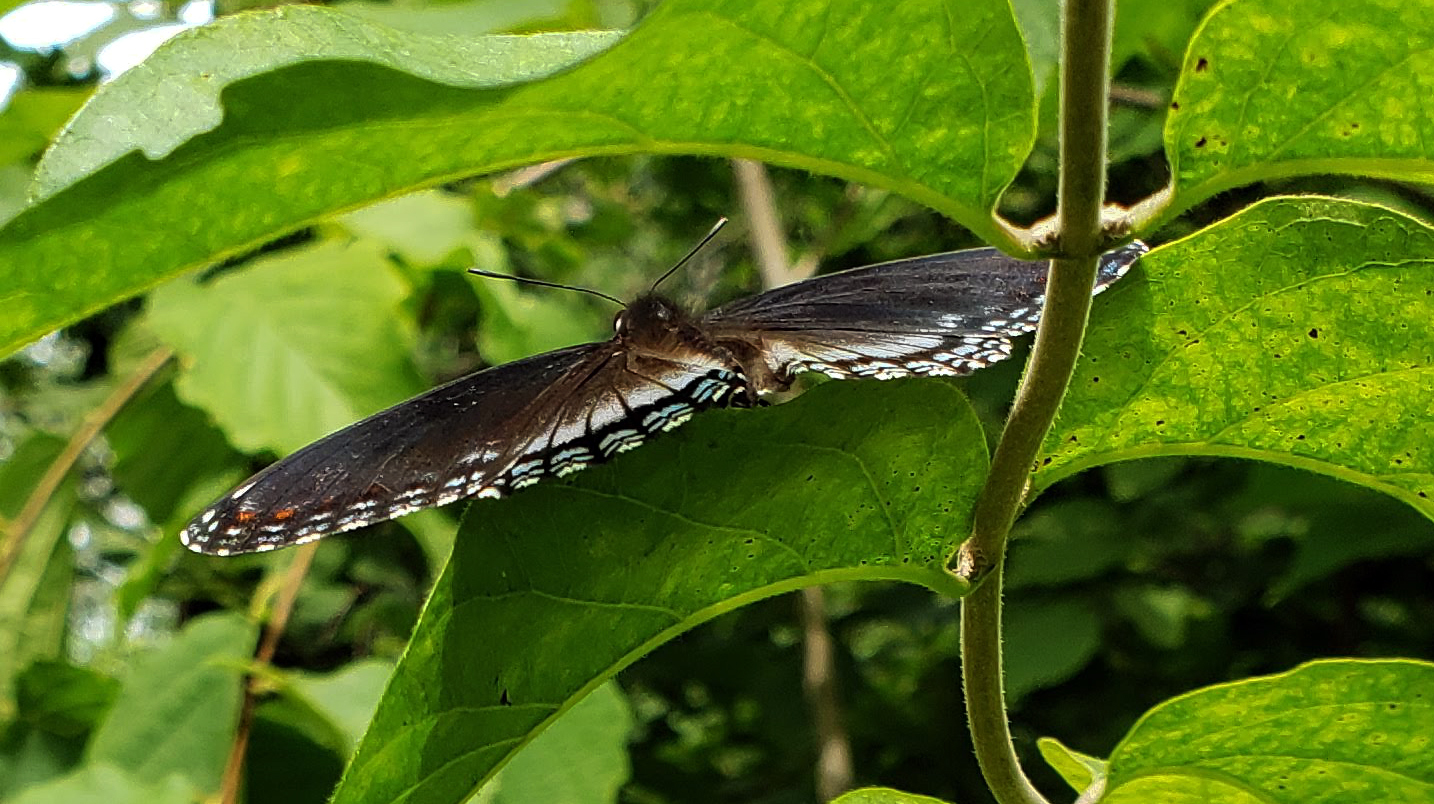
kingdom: Animalia
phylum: Arthropoda
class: Insecta
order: Lepidoptera
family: Nymphalidae
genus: Limenitis
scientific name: Limenitis arthemis
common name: Red-spotted admiral
